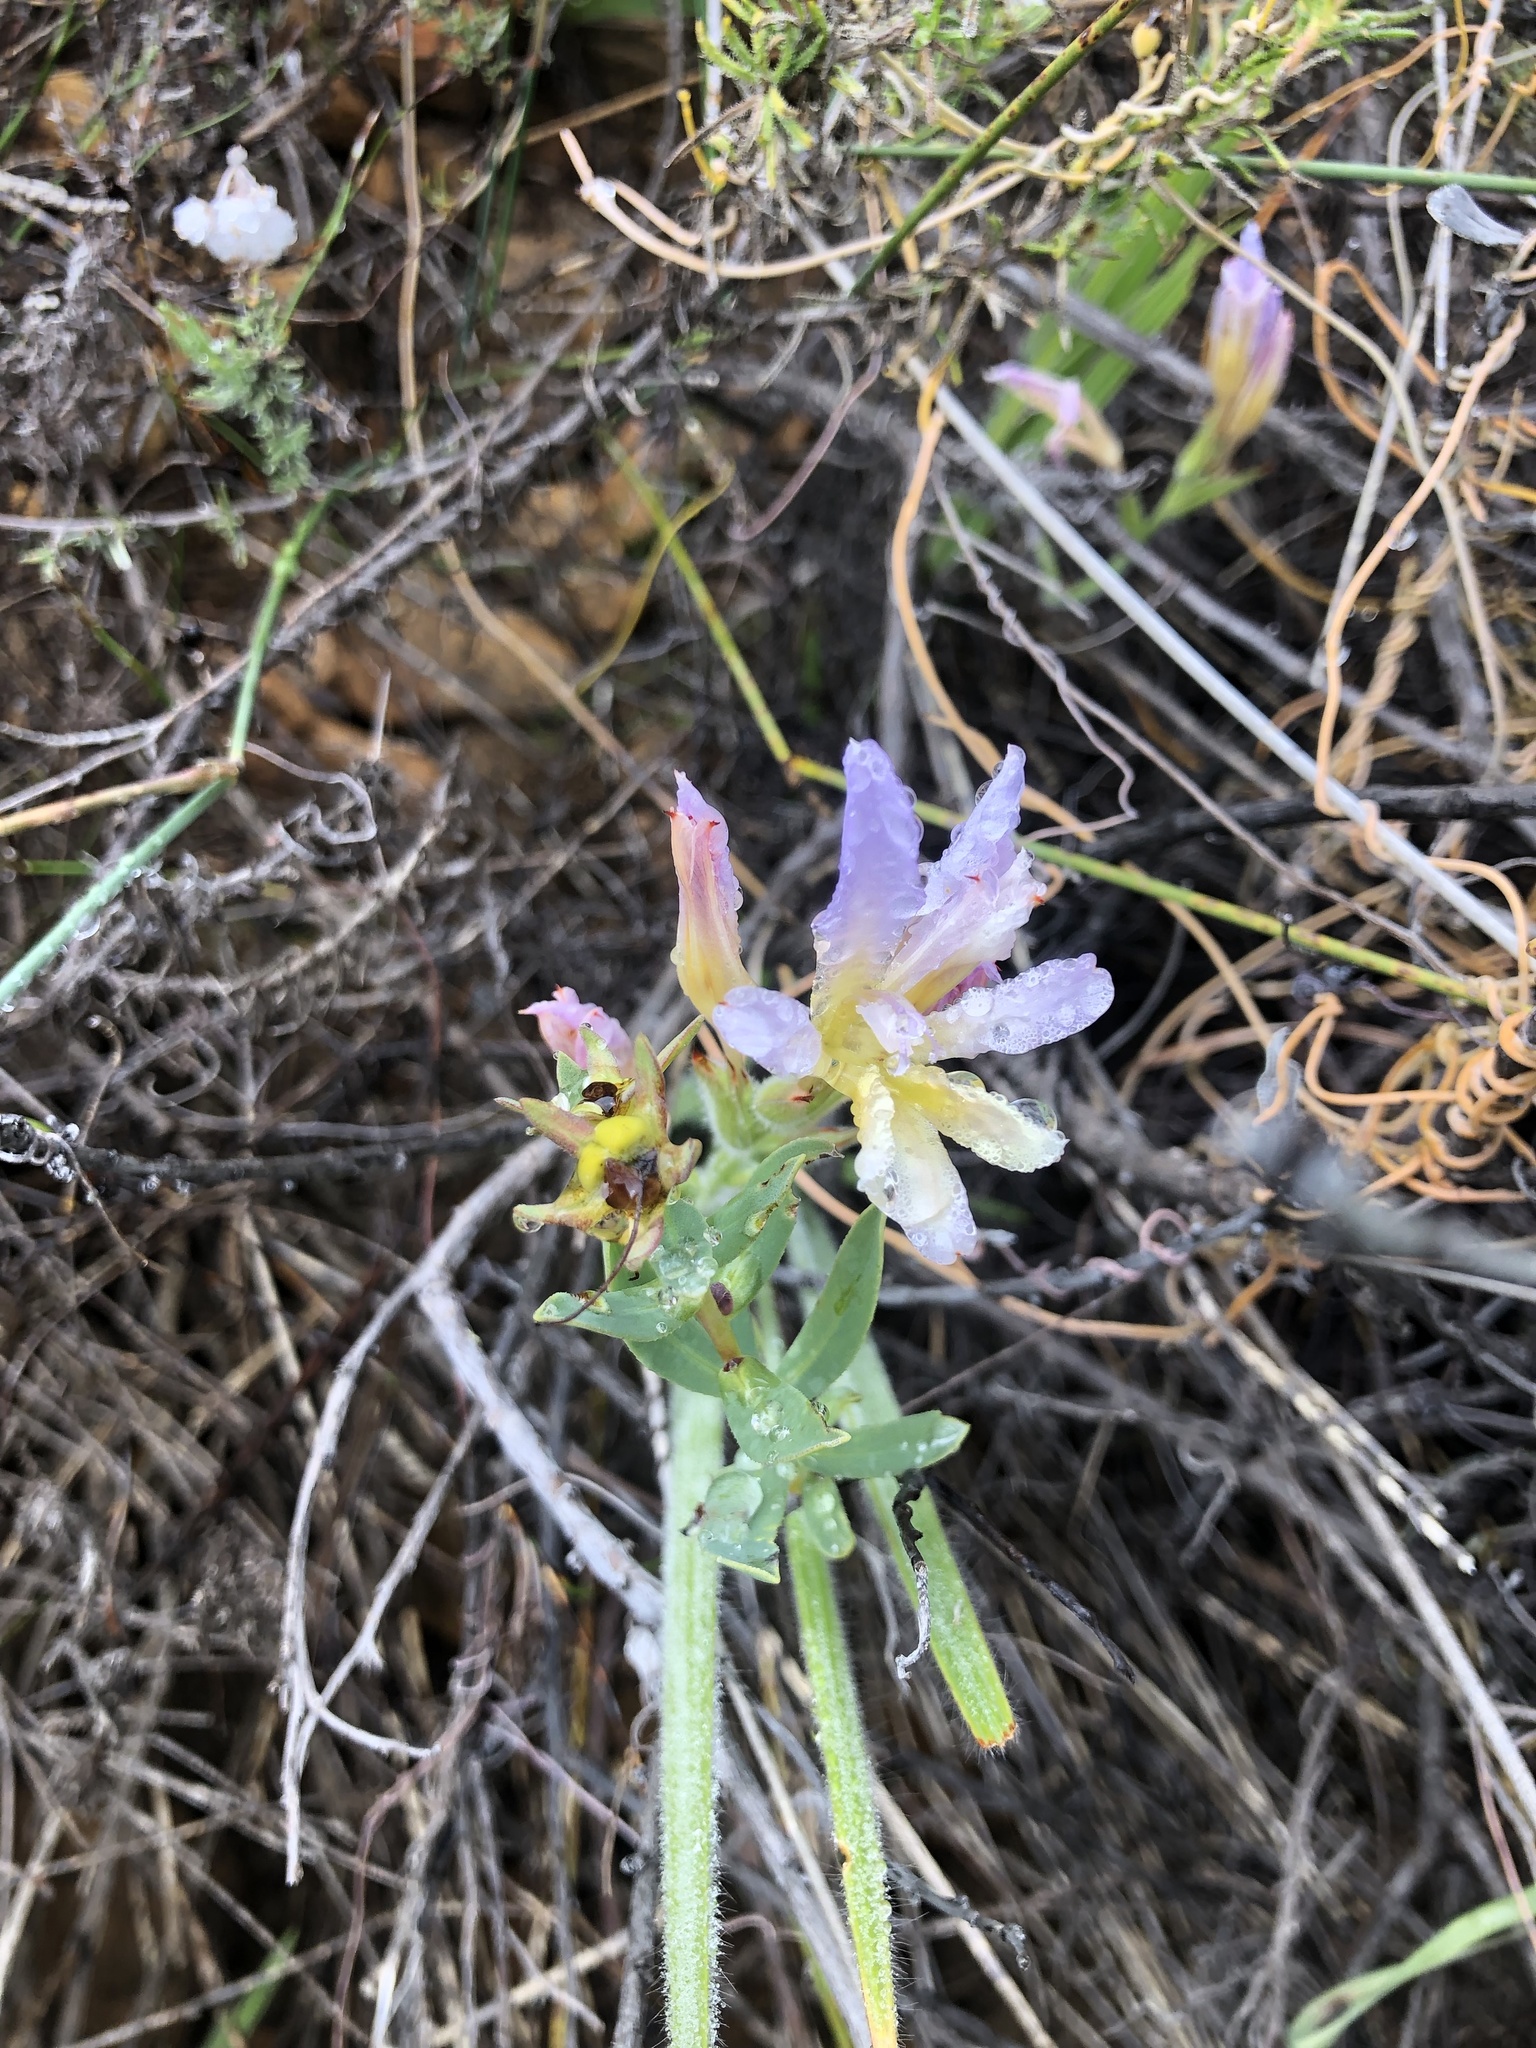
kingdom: Plantae
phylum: Tracheophyta
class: Liliopsida
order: Asparagales
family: Iridaceae
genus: Babiana
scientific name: Babiana odorata
